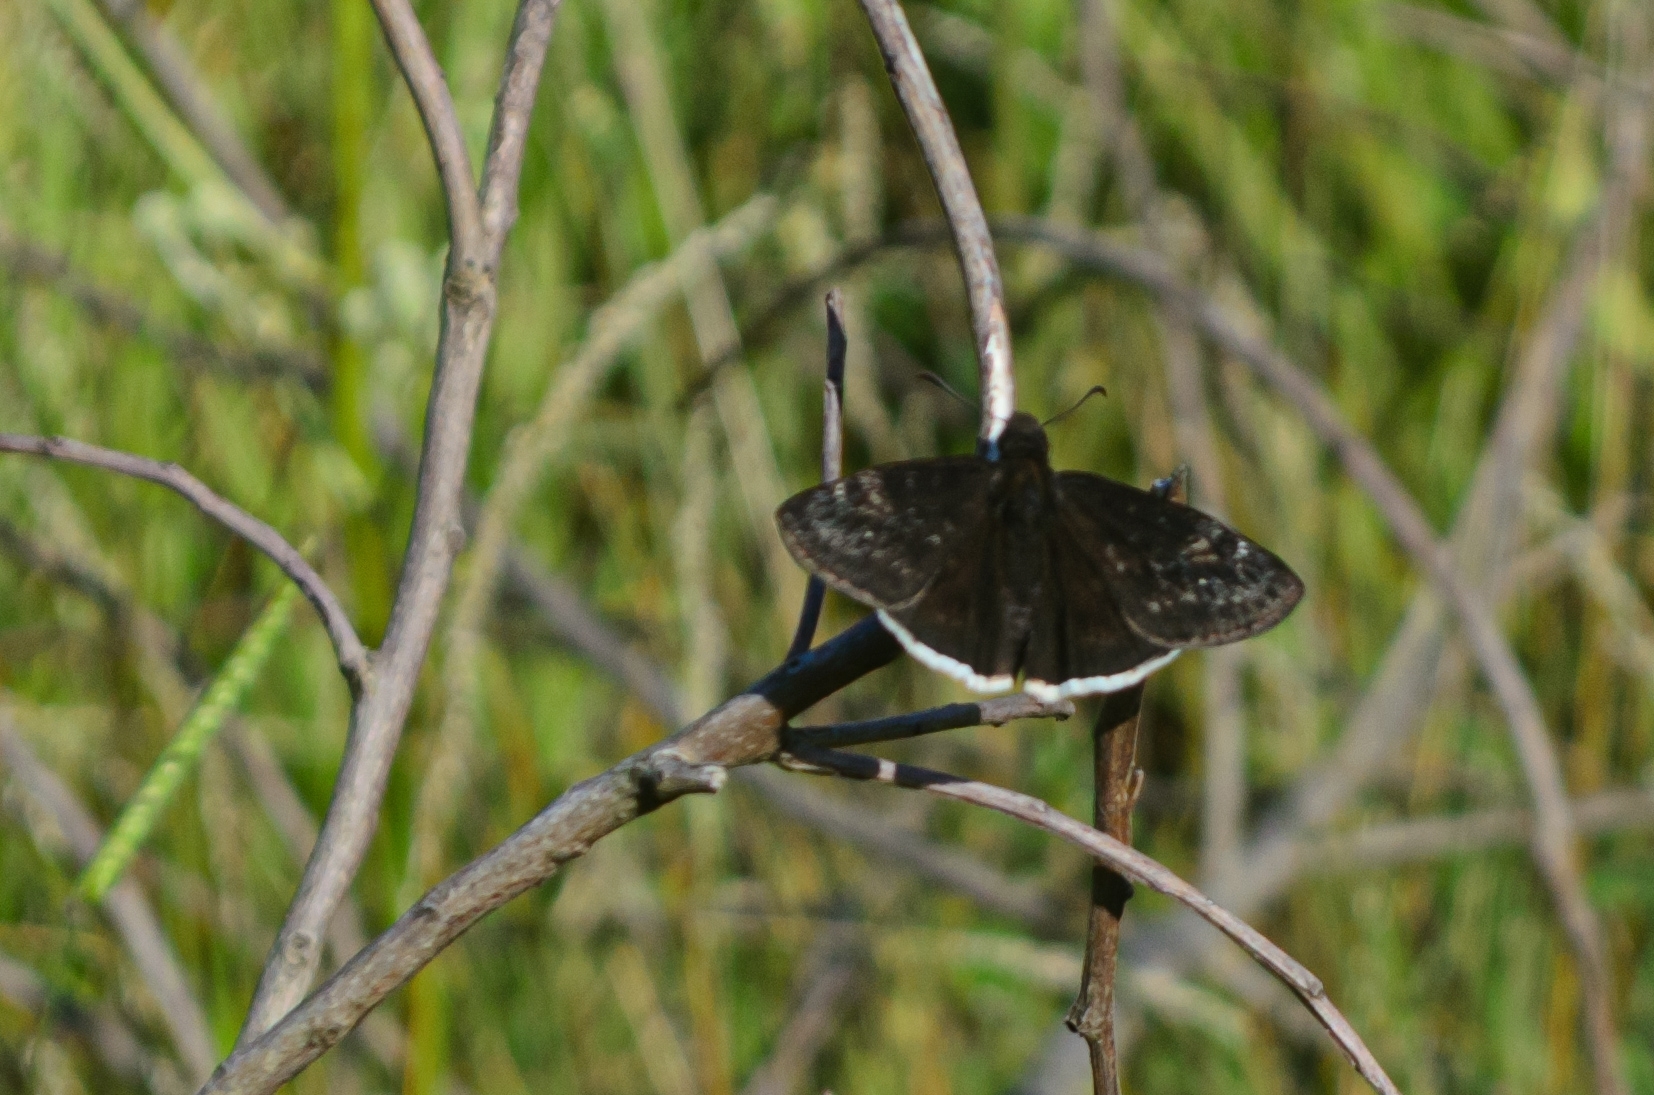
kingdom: Animalia
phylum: Arthropoda
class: Insecta
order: Lepidoptera
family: Hesperiidae
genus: Erynnis
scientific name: Erynnis funeralis
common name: Funereal duskywing
